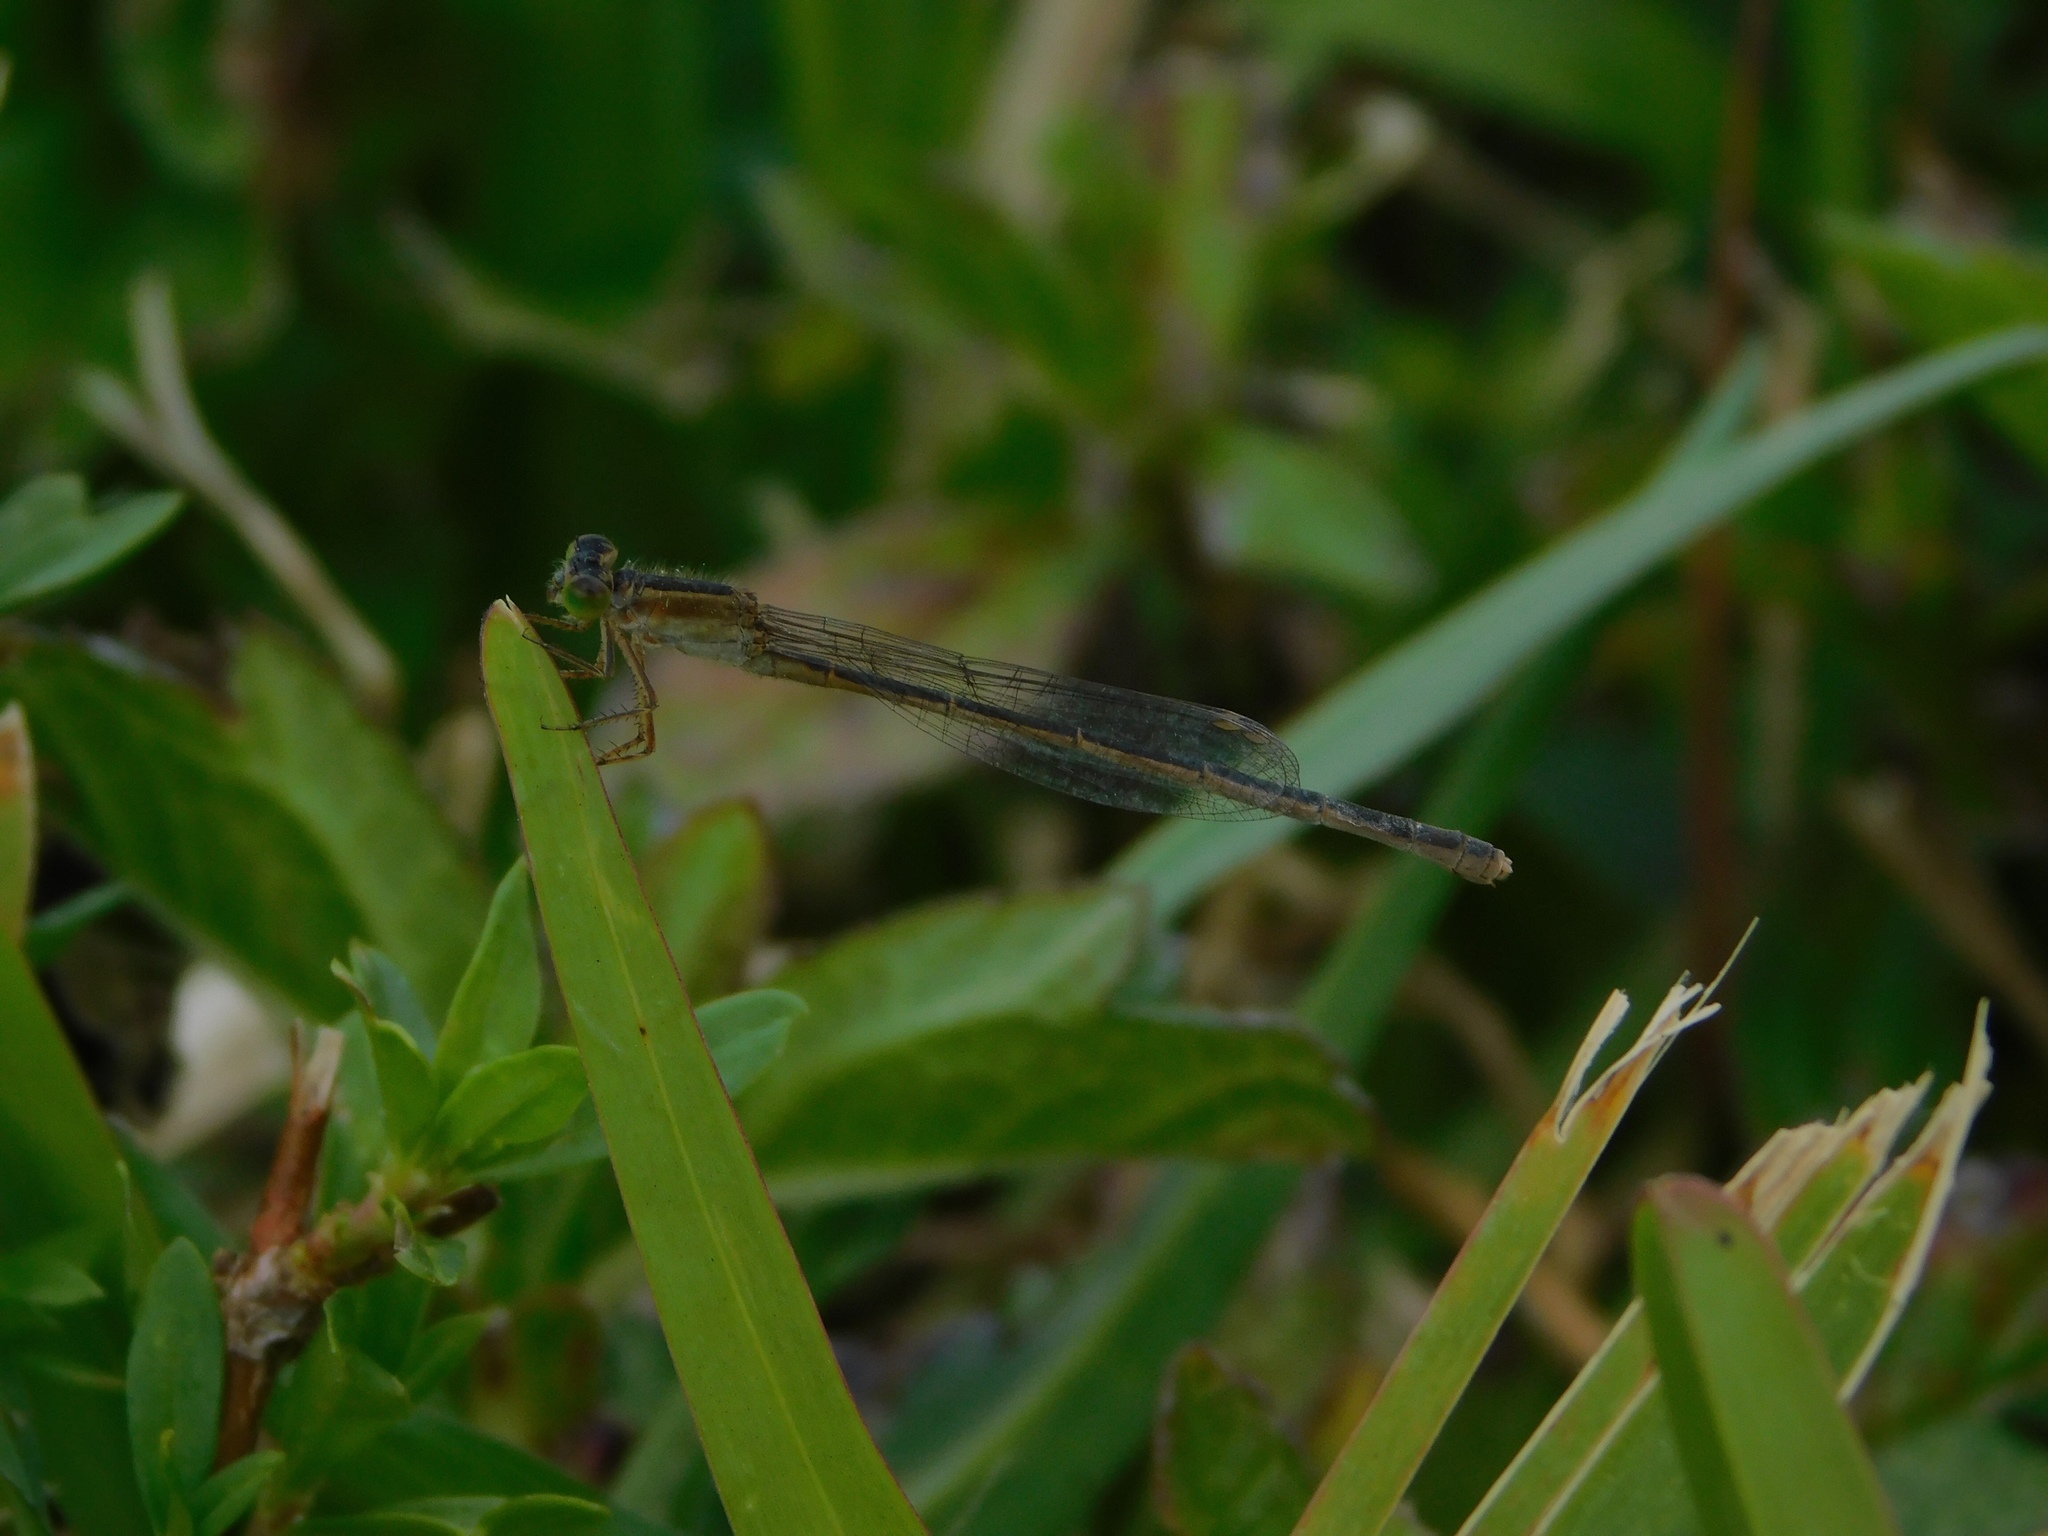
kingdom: Animalia
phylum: Arthropoda
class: Insecta
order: Odonata
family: Coenagrionidae
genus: Ischnura
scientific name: Ischnura ramburii
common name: Rambur's forktail
